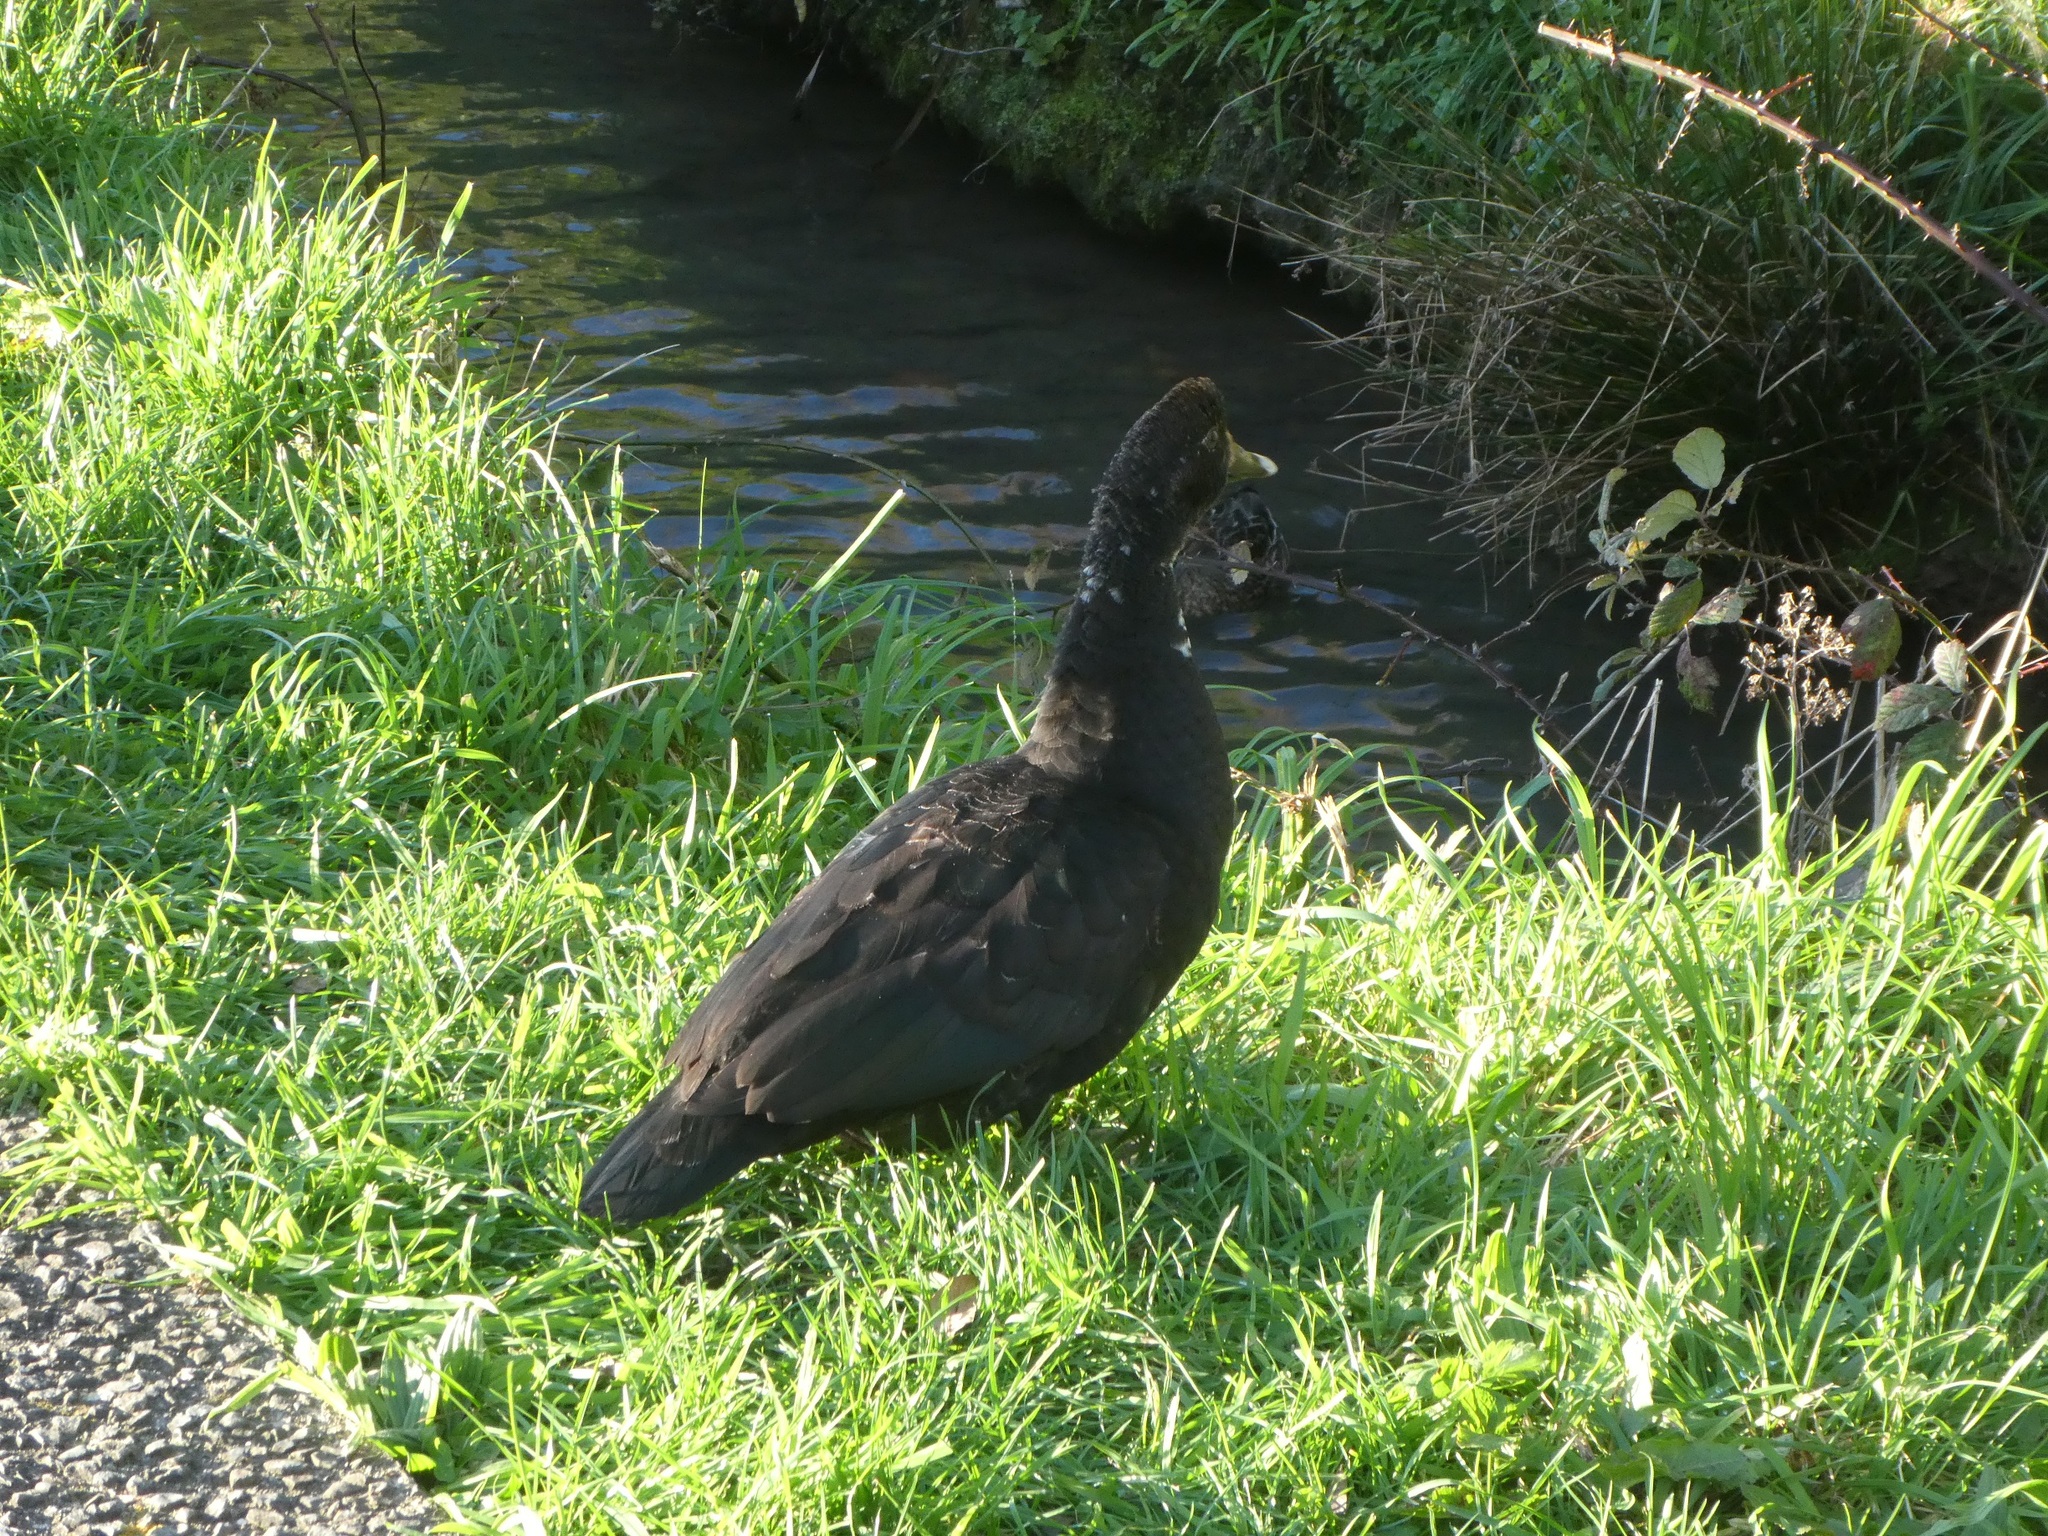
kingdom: Animalia
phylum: Chordata
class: Aves
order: Anseriformes
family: Anatidae
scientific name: Anatidae
